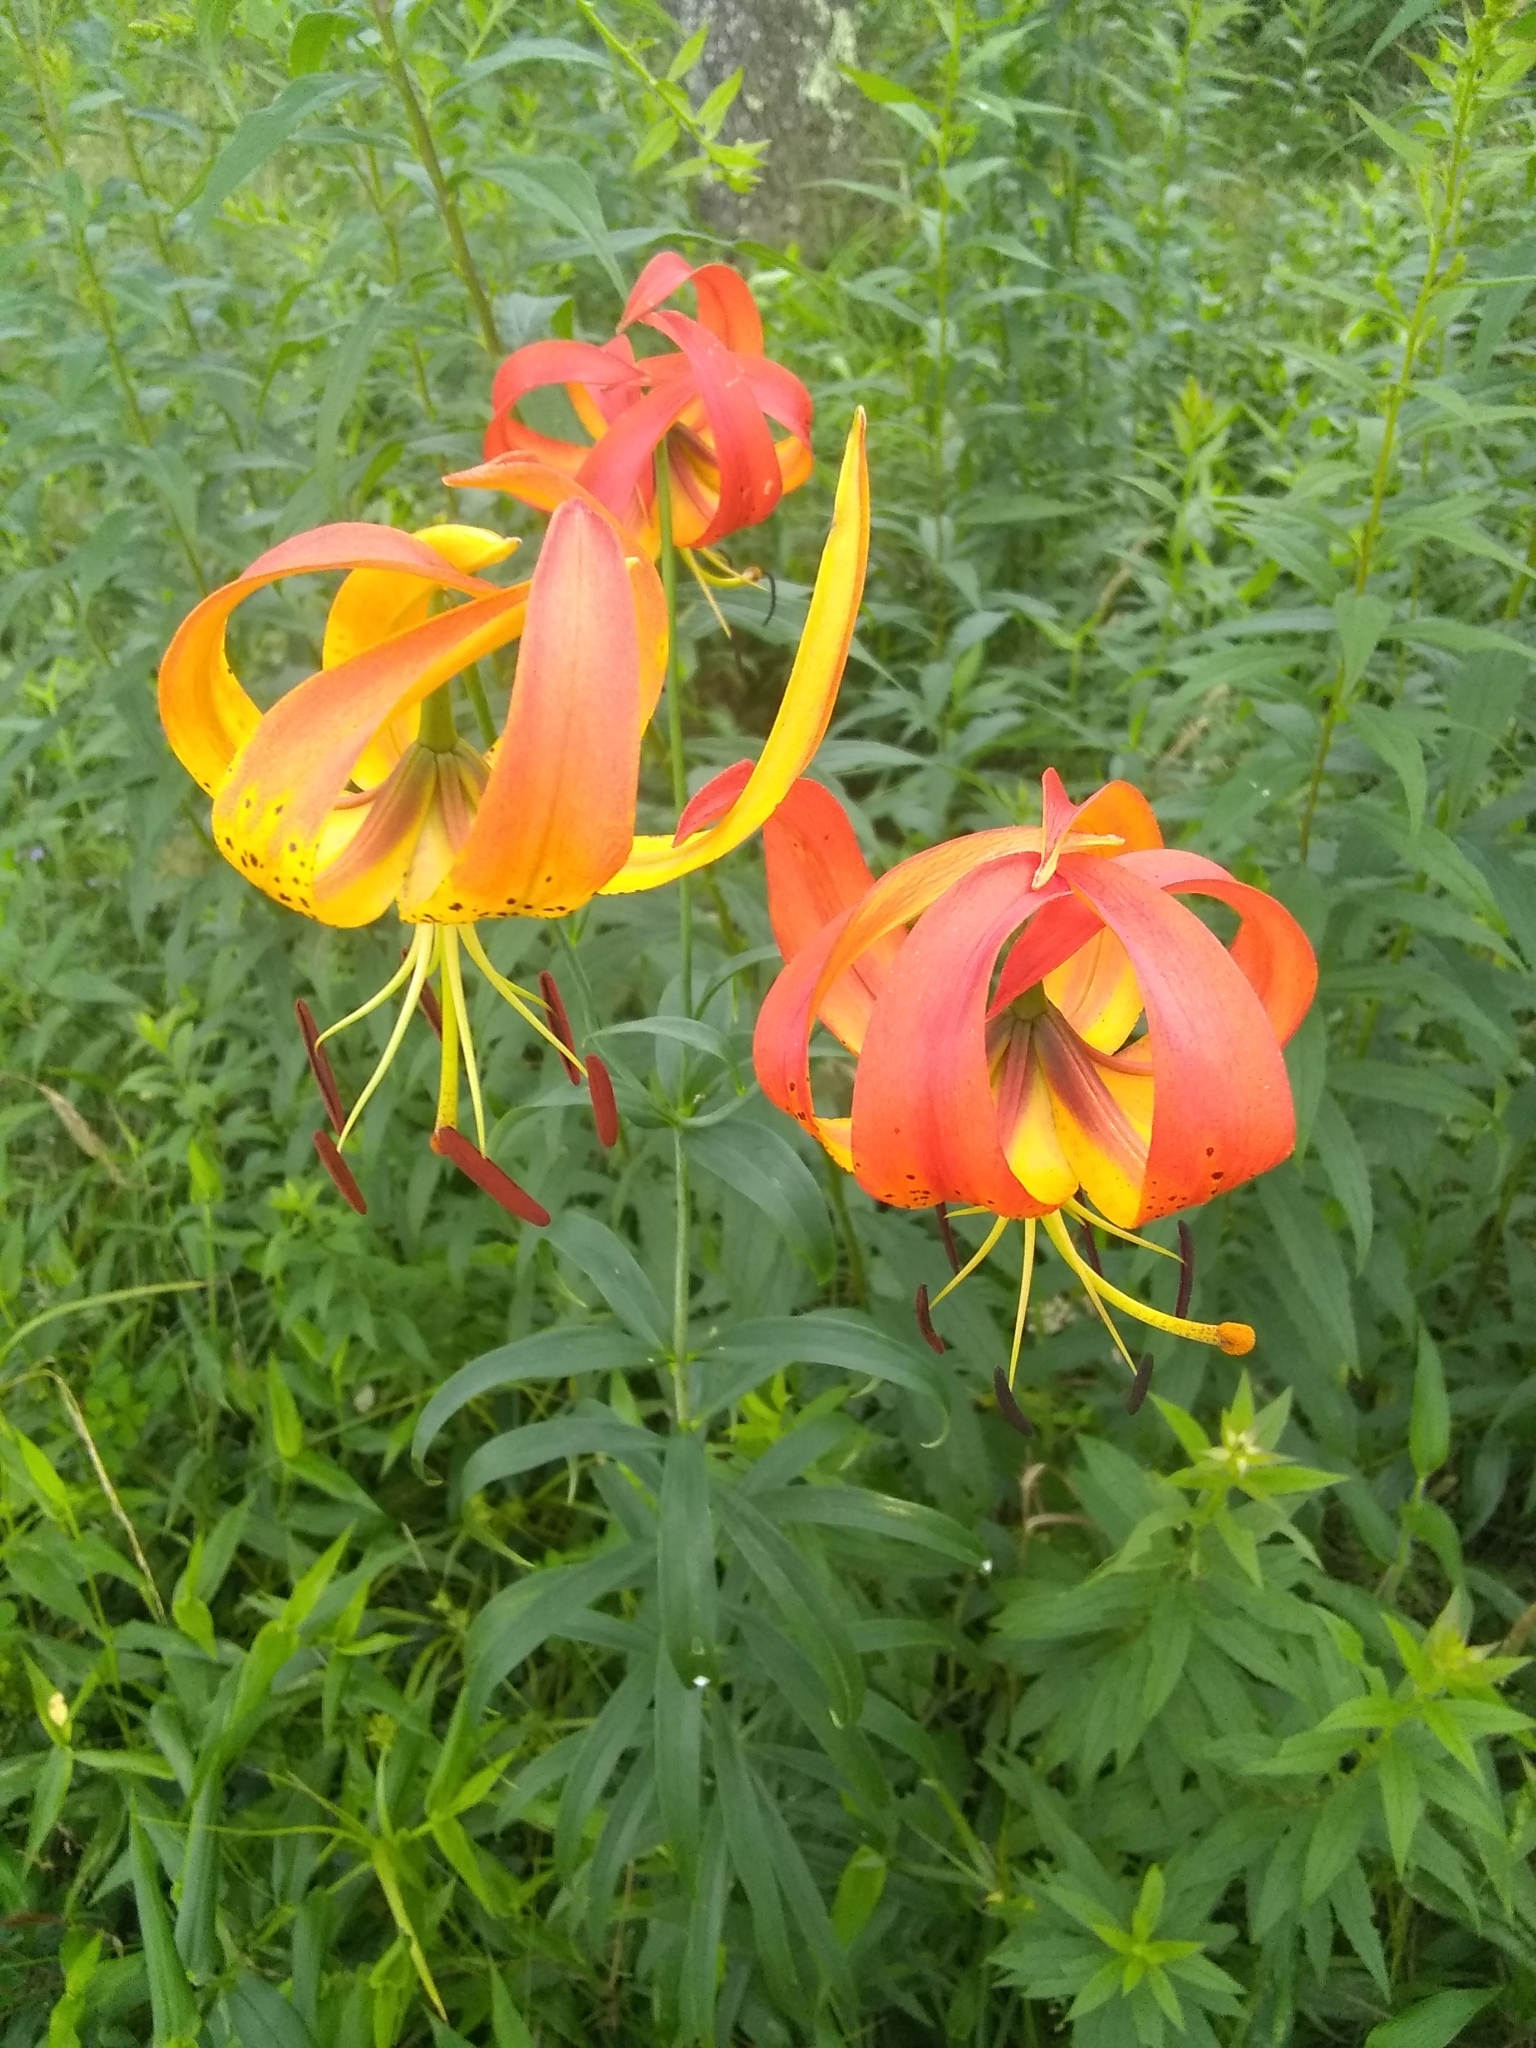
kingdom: Plantae
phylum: Tracheophyta
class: Liliopsida
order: Liliales
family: Liliaceae
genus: Lilium
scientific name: Lilium superbum
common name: American turk's-cap lily
